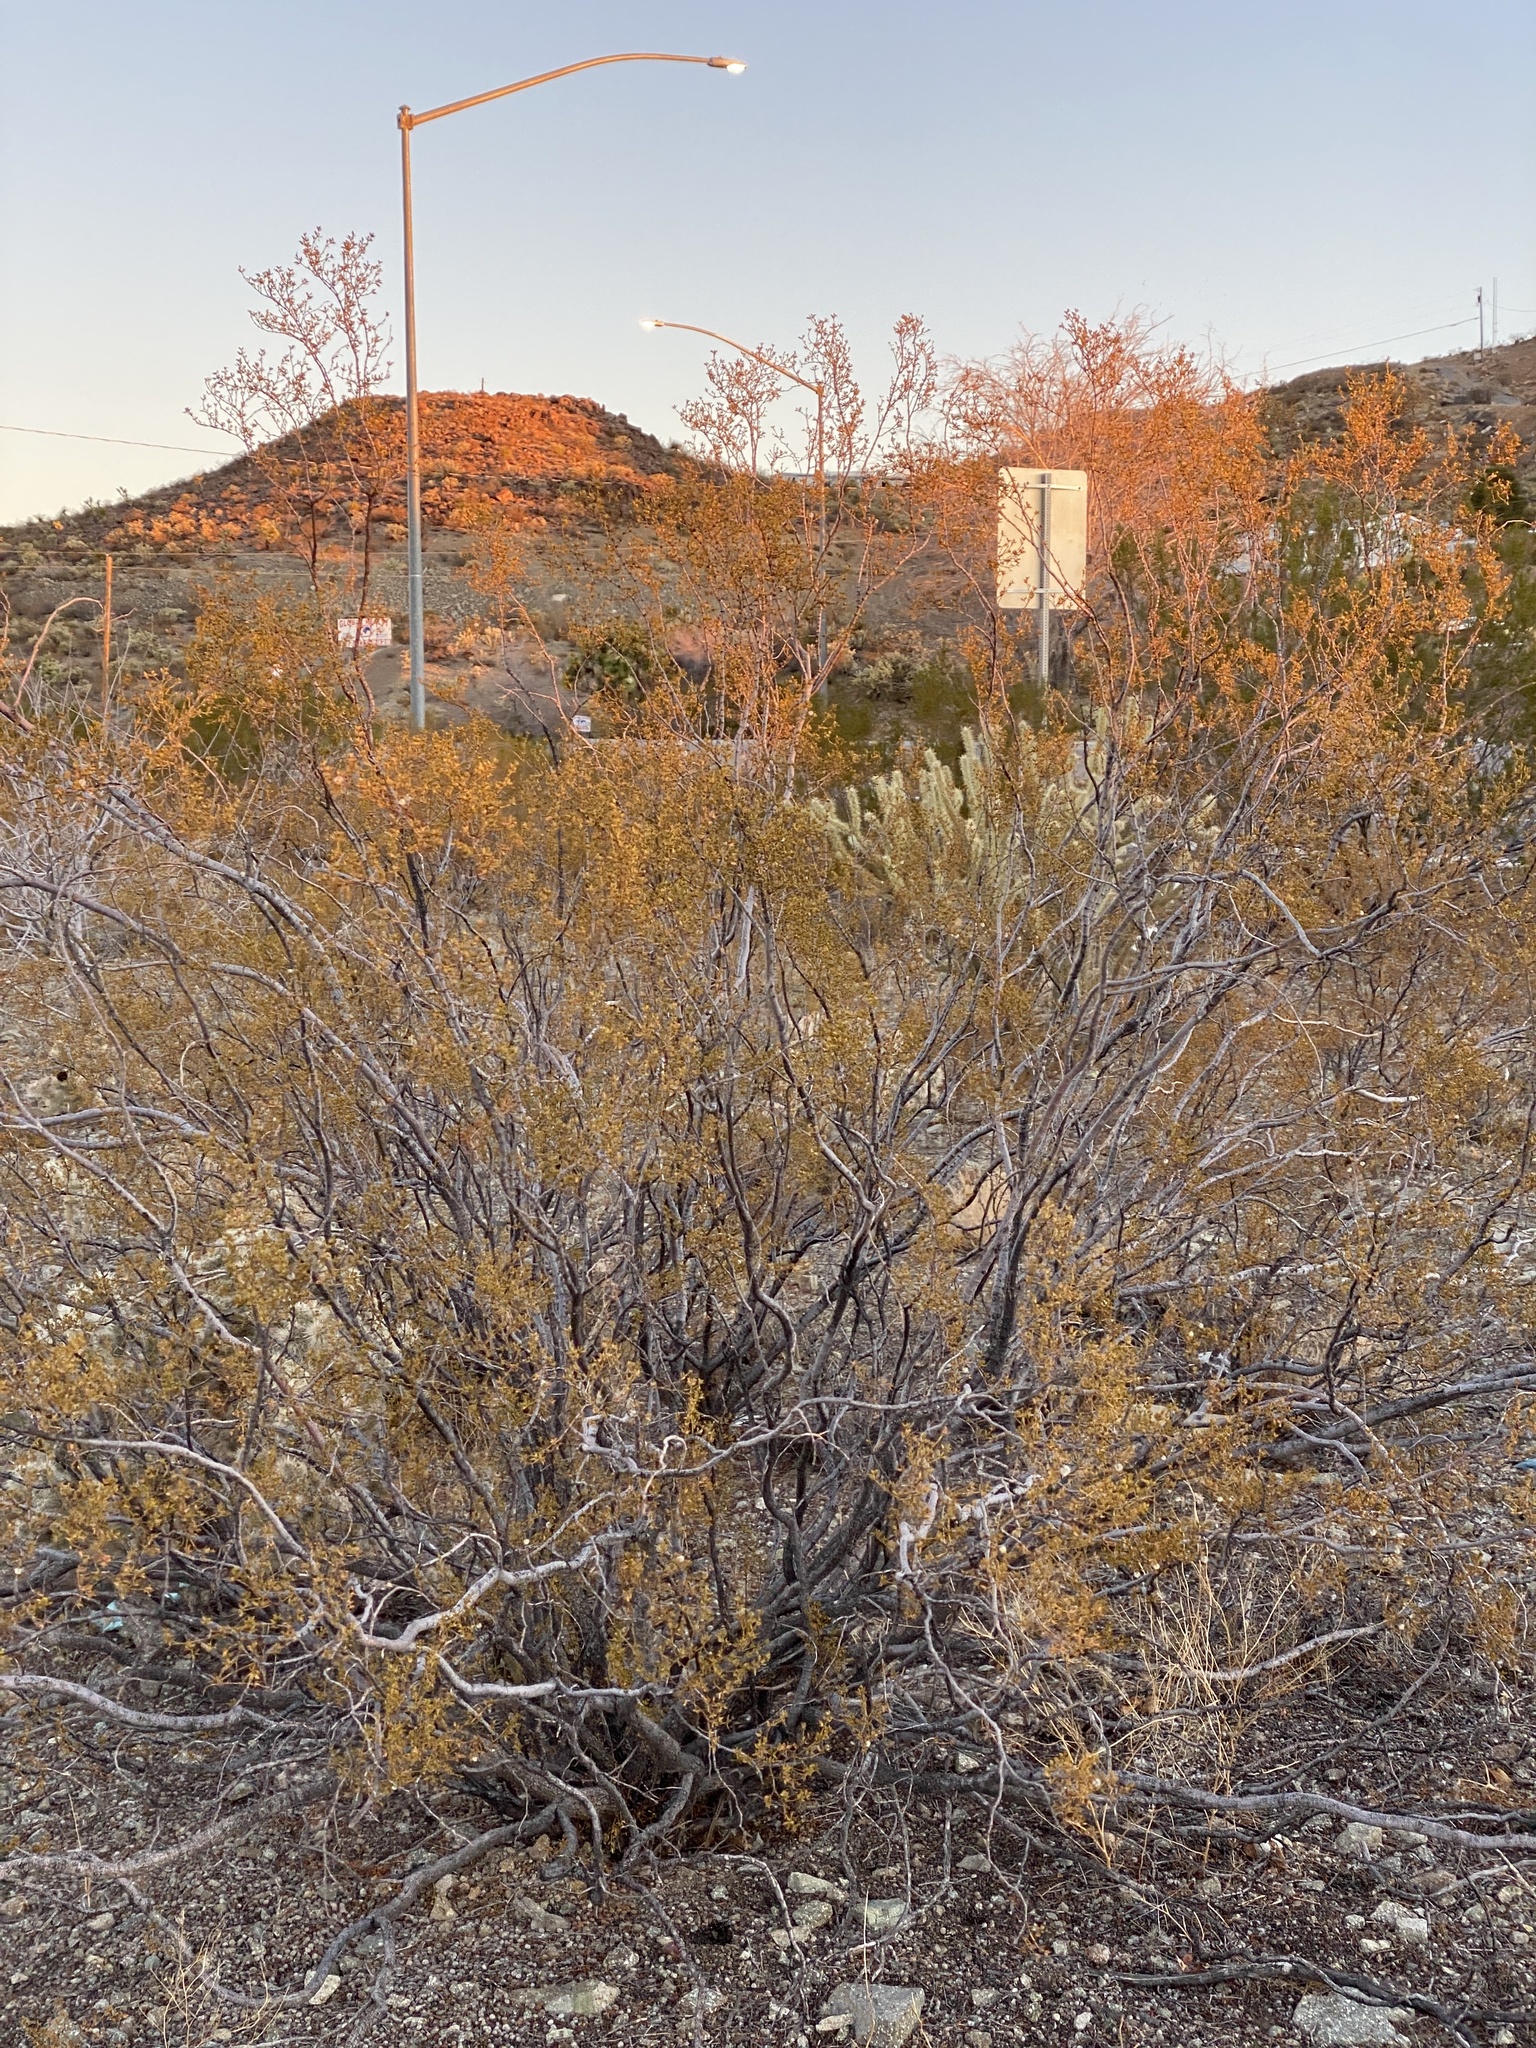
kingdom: Plantae
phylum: Tracheophyta
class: Magnoliopsida
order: Zygophyllales
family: Zygophyllaceae
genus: Larrea
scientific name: Larrea tridentata
